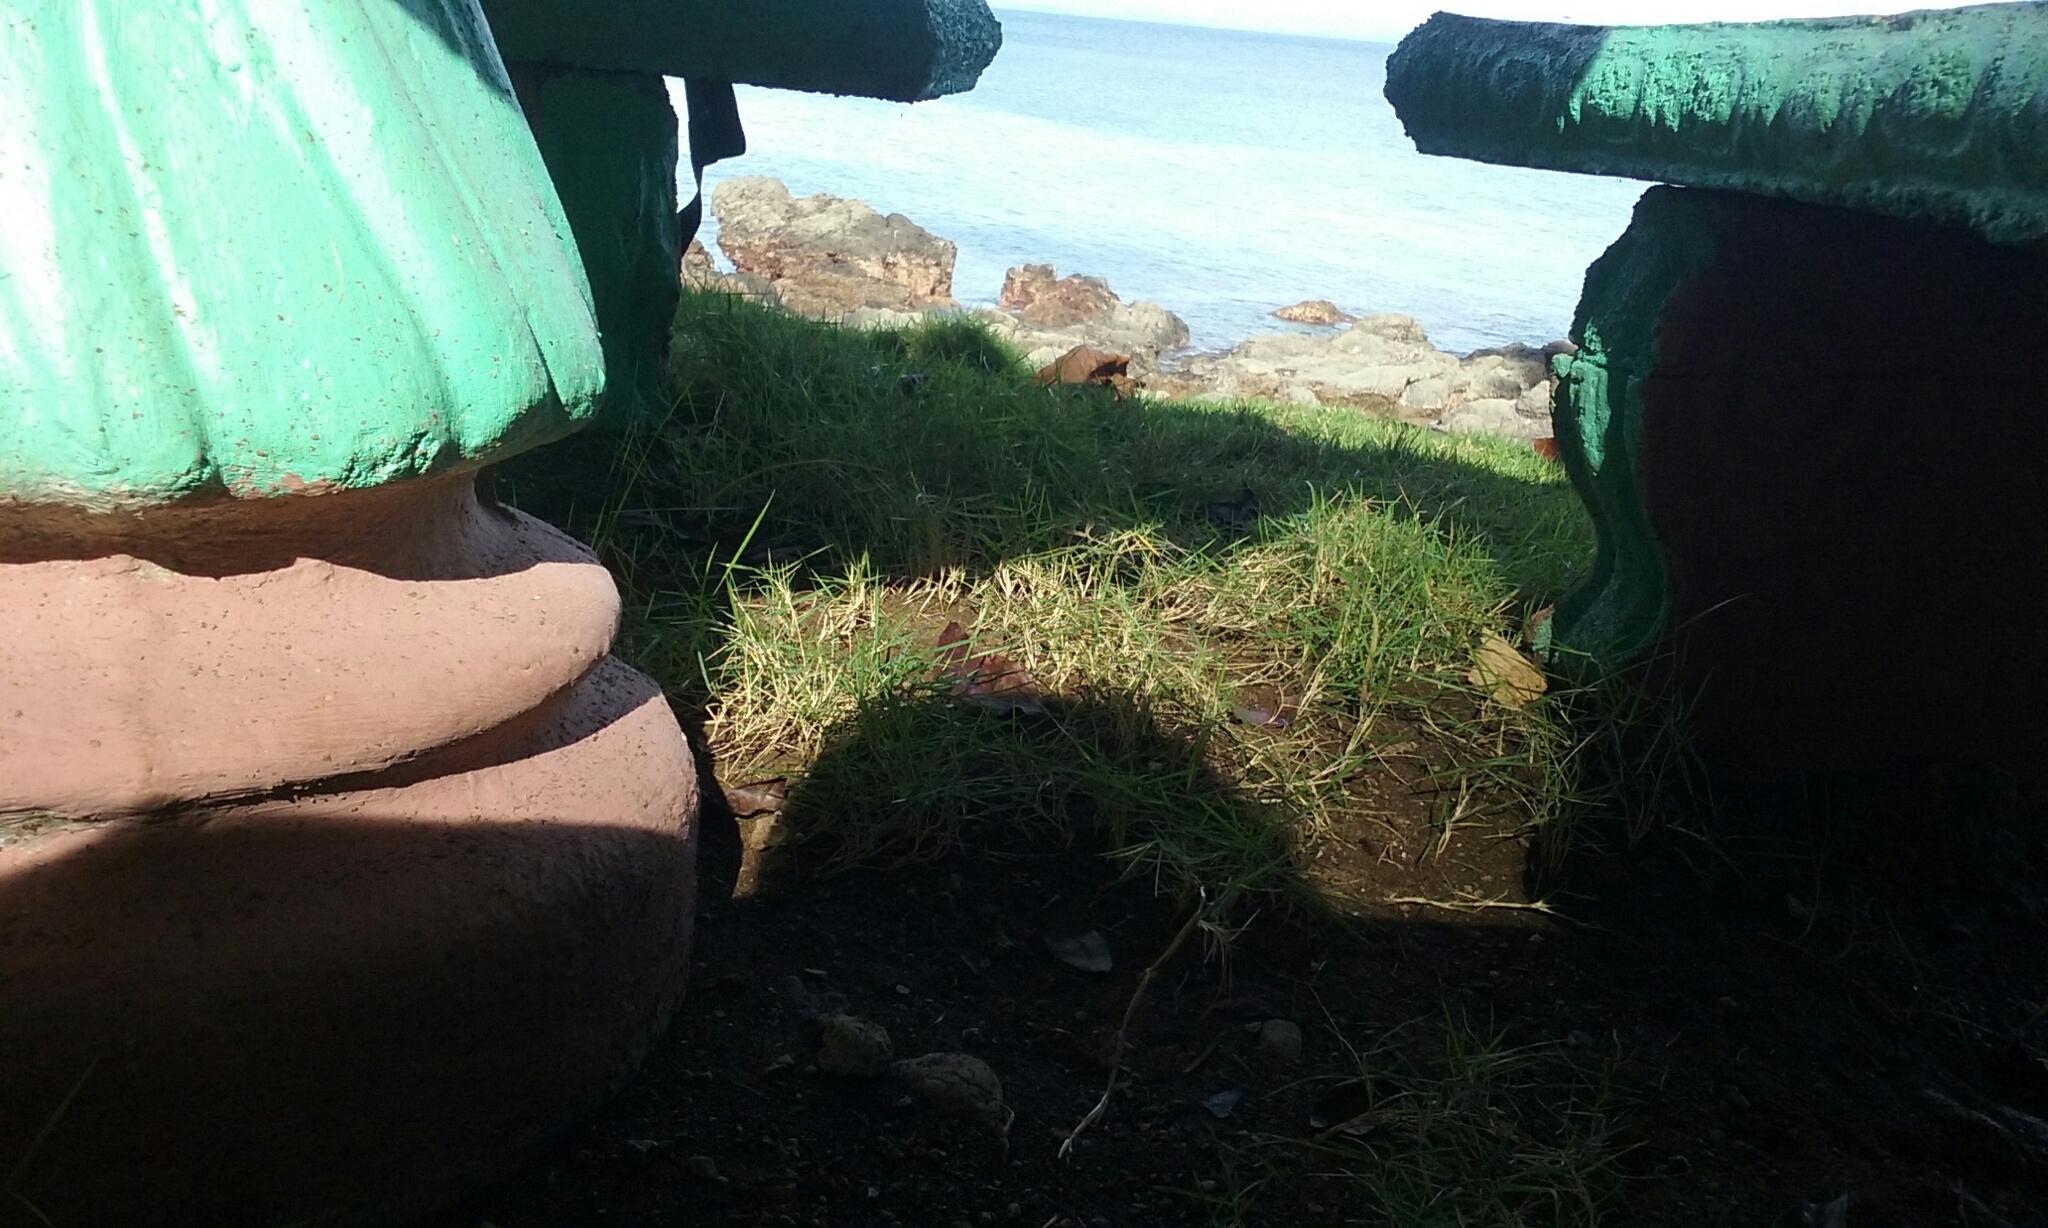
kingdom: Animalia
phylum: Arthropoda
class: Malacostraca
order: Decapoda
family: Coenobitidae
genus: Coenobita
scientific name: Coenobita compressus
